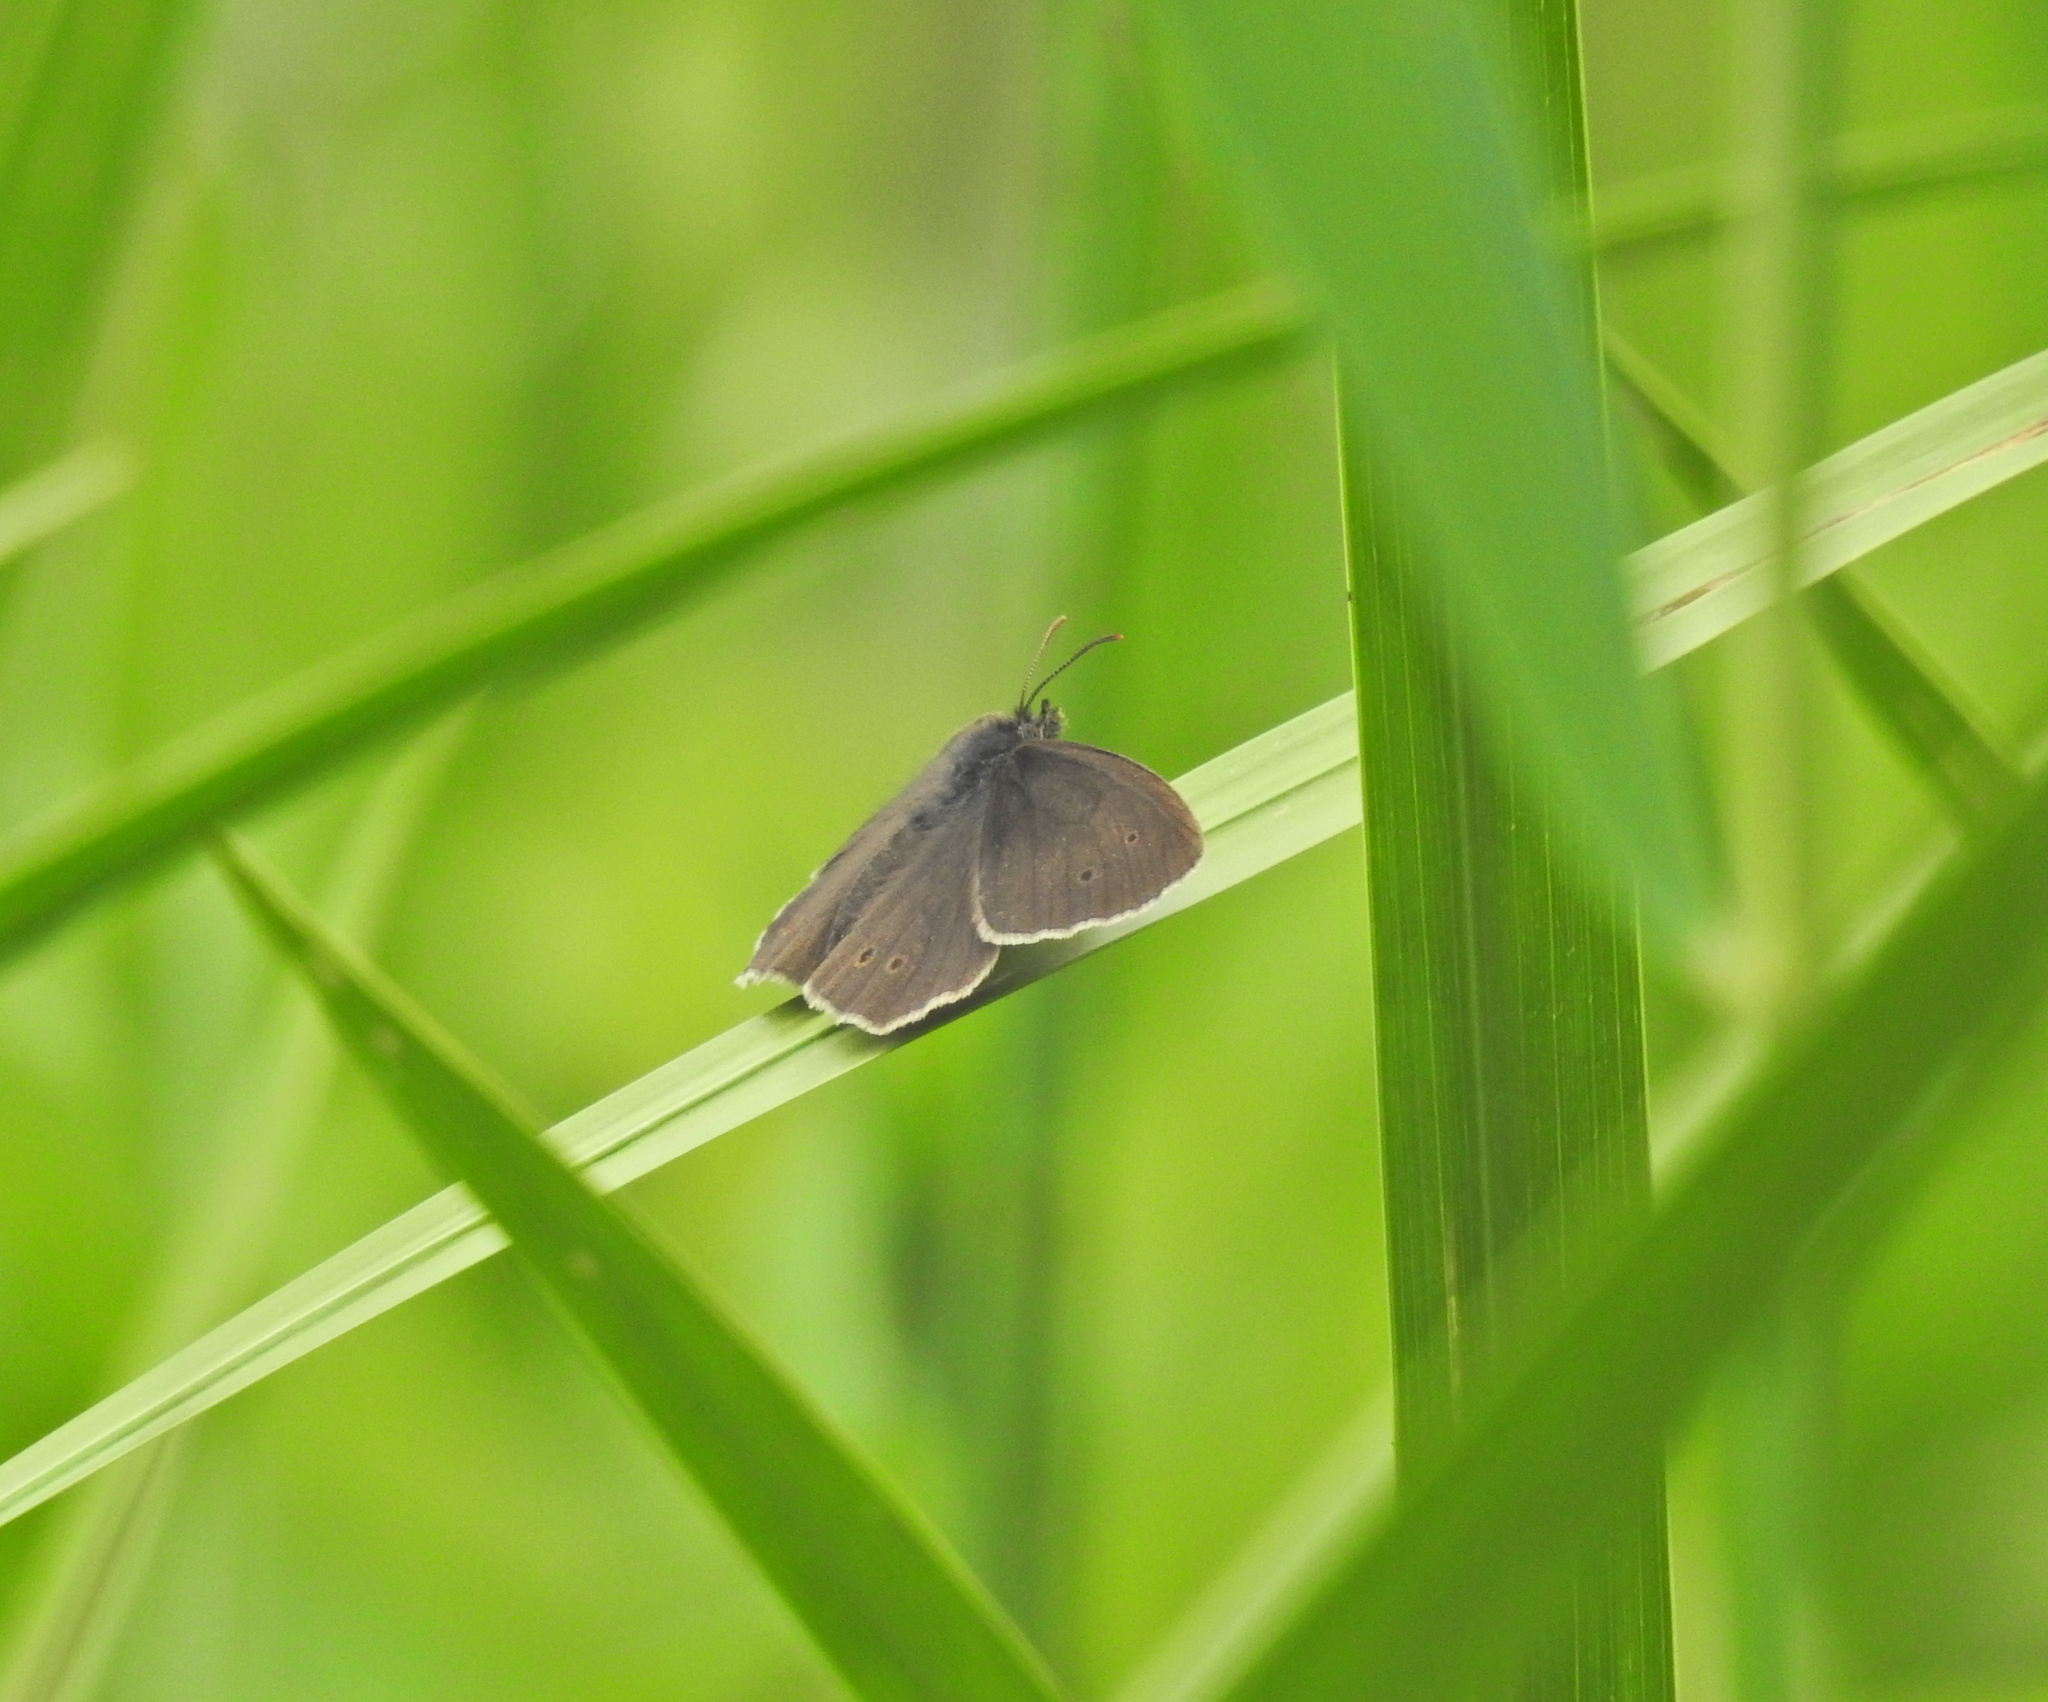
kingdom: Animalia
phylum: Arthropoda
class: Insecta
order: Lepidoptera
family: Nymphalidae
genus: Aphantopus
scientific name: Aphantopus hyperantus
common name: Ringlet
